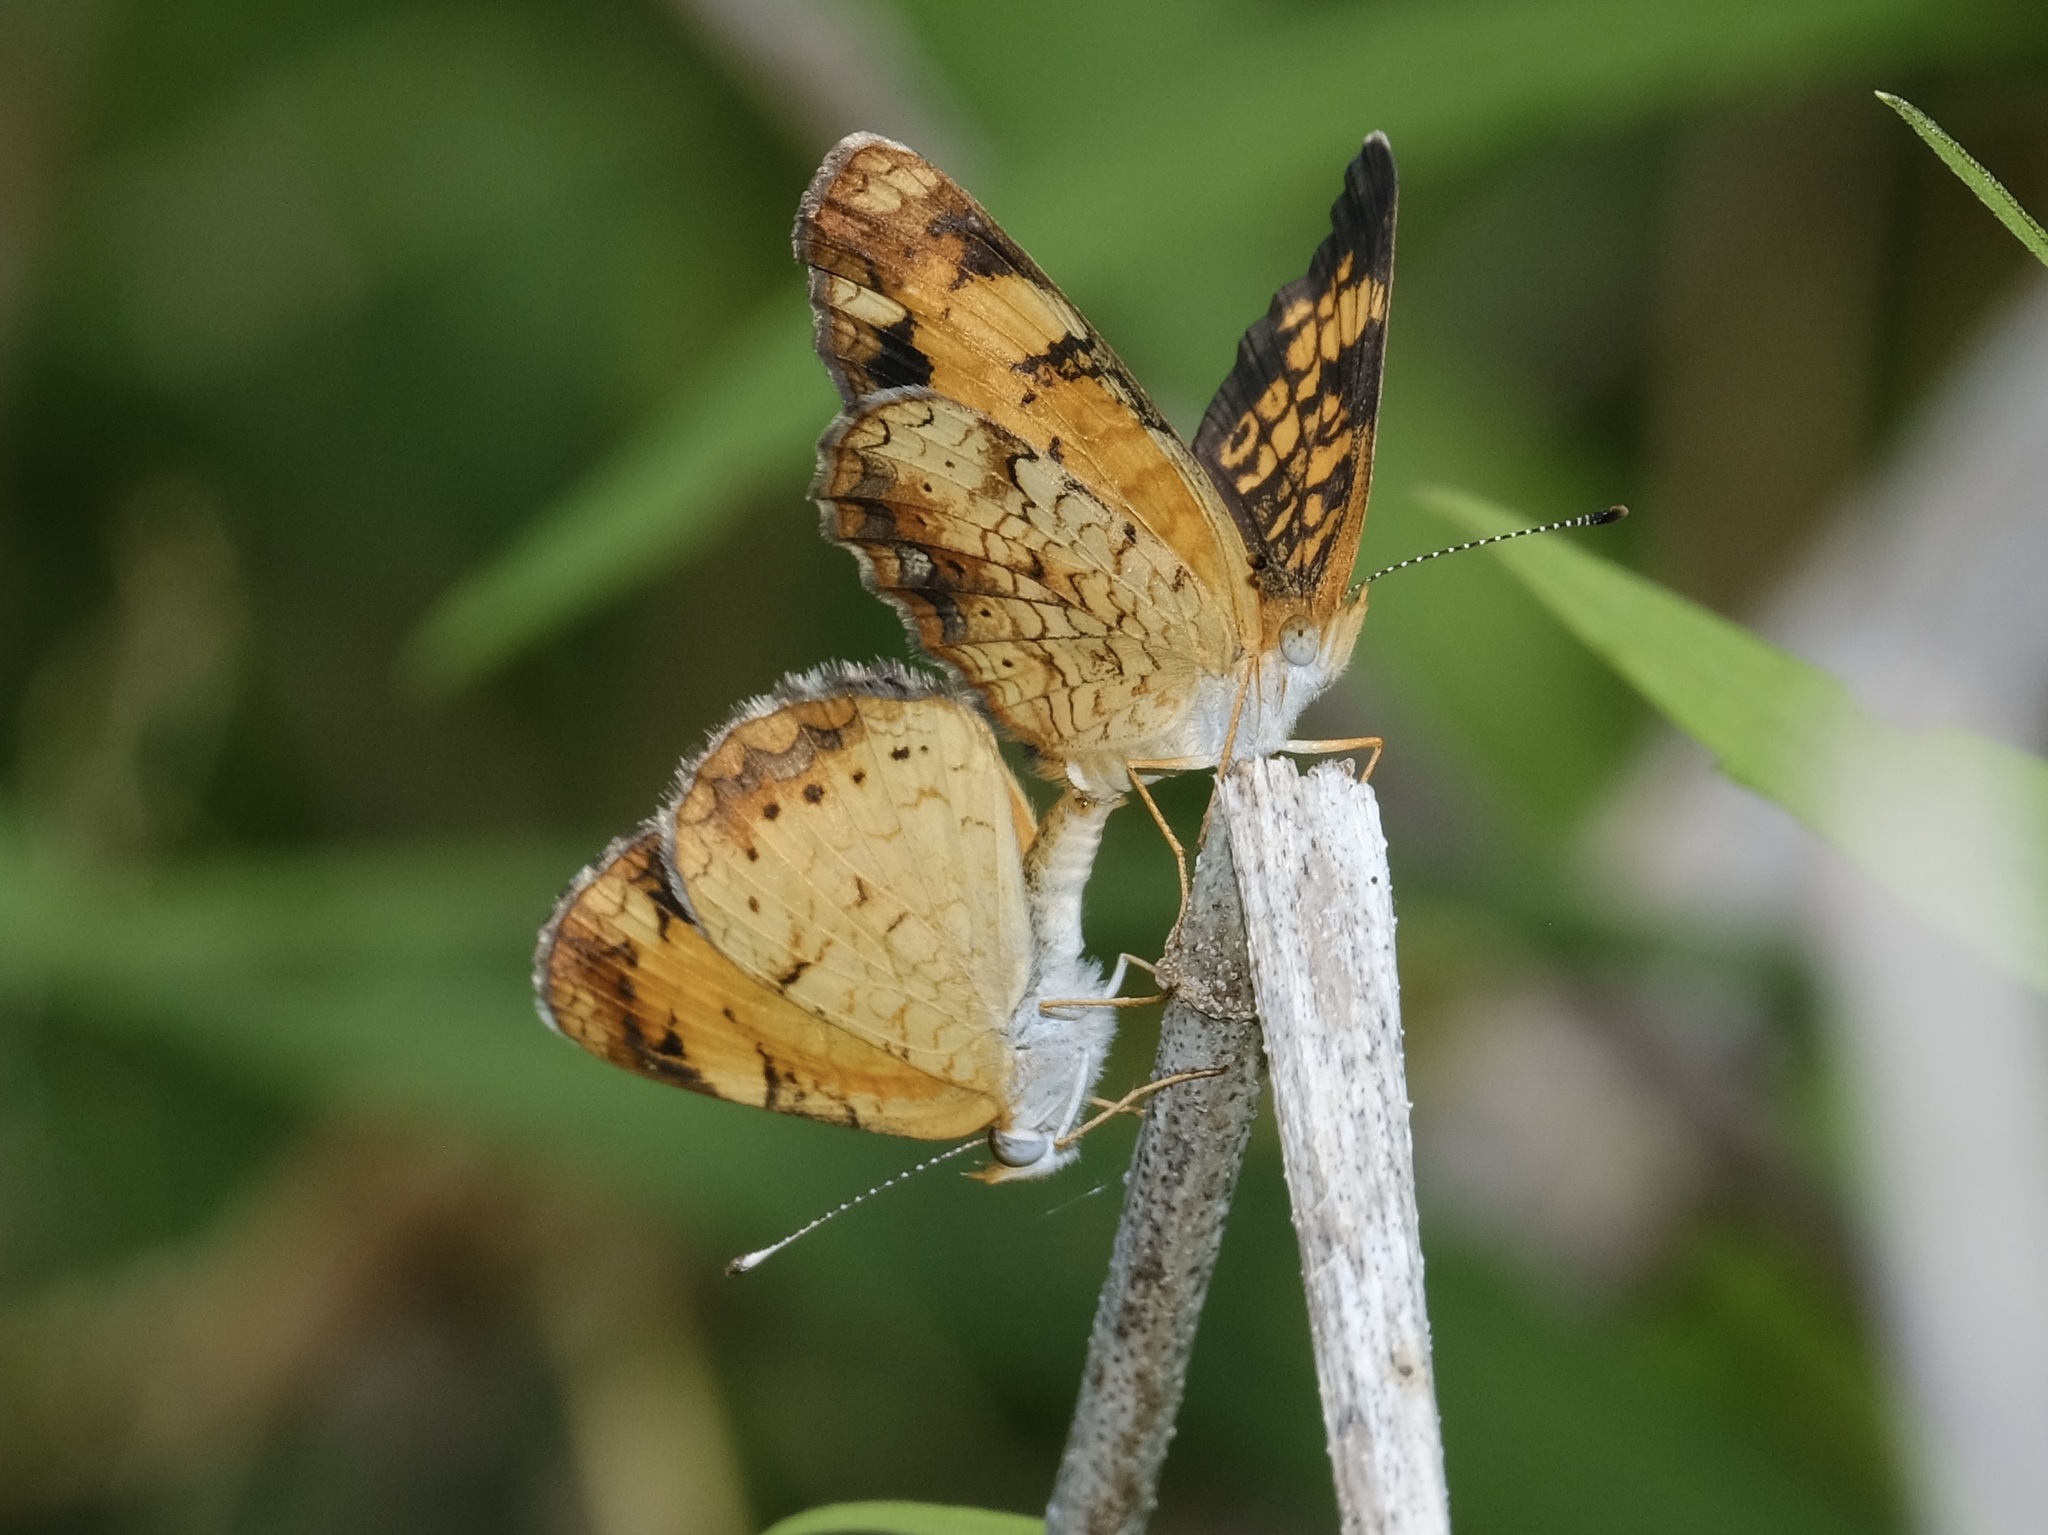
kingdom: Animalia
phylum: Arthropoda
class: Insecta
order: Lepidoptera
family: Nymphalidae
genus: Phyciodes
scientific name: Phyciodes tharos
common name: Pearl crescent
